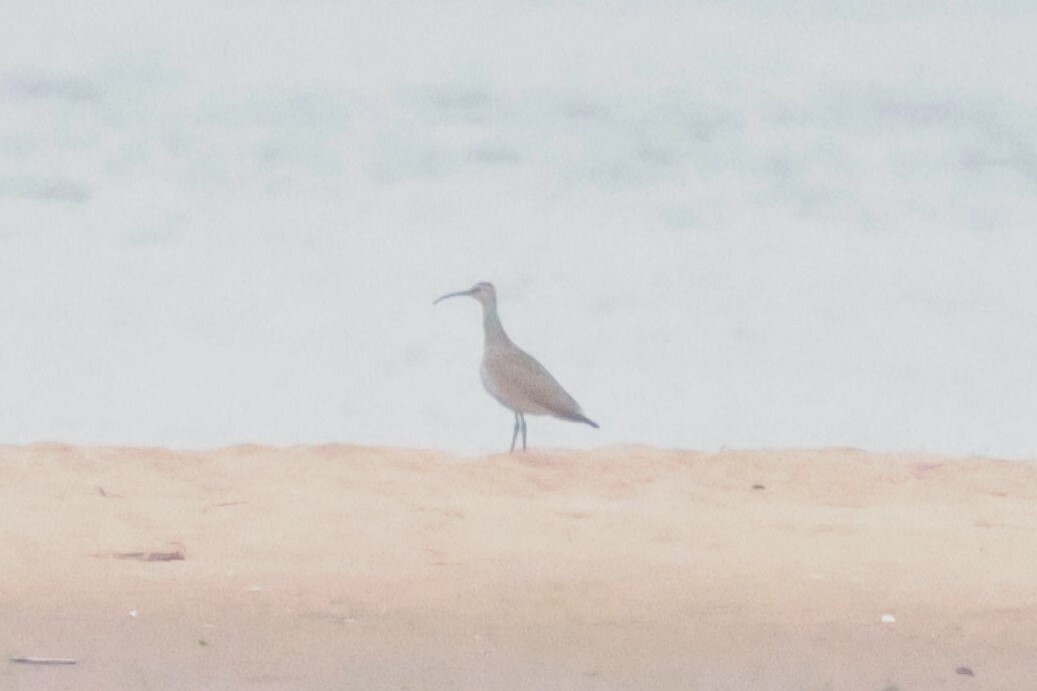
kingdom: Animalia
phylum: Chordata
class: Aves
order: Charadriiformes
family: Scolopacidae
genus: Numenius
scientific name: Numenius phaeopus
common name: Whimbrel
